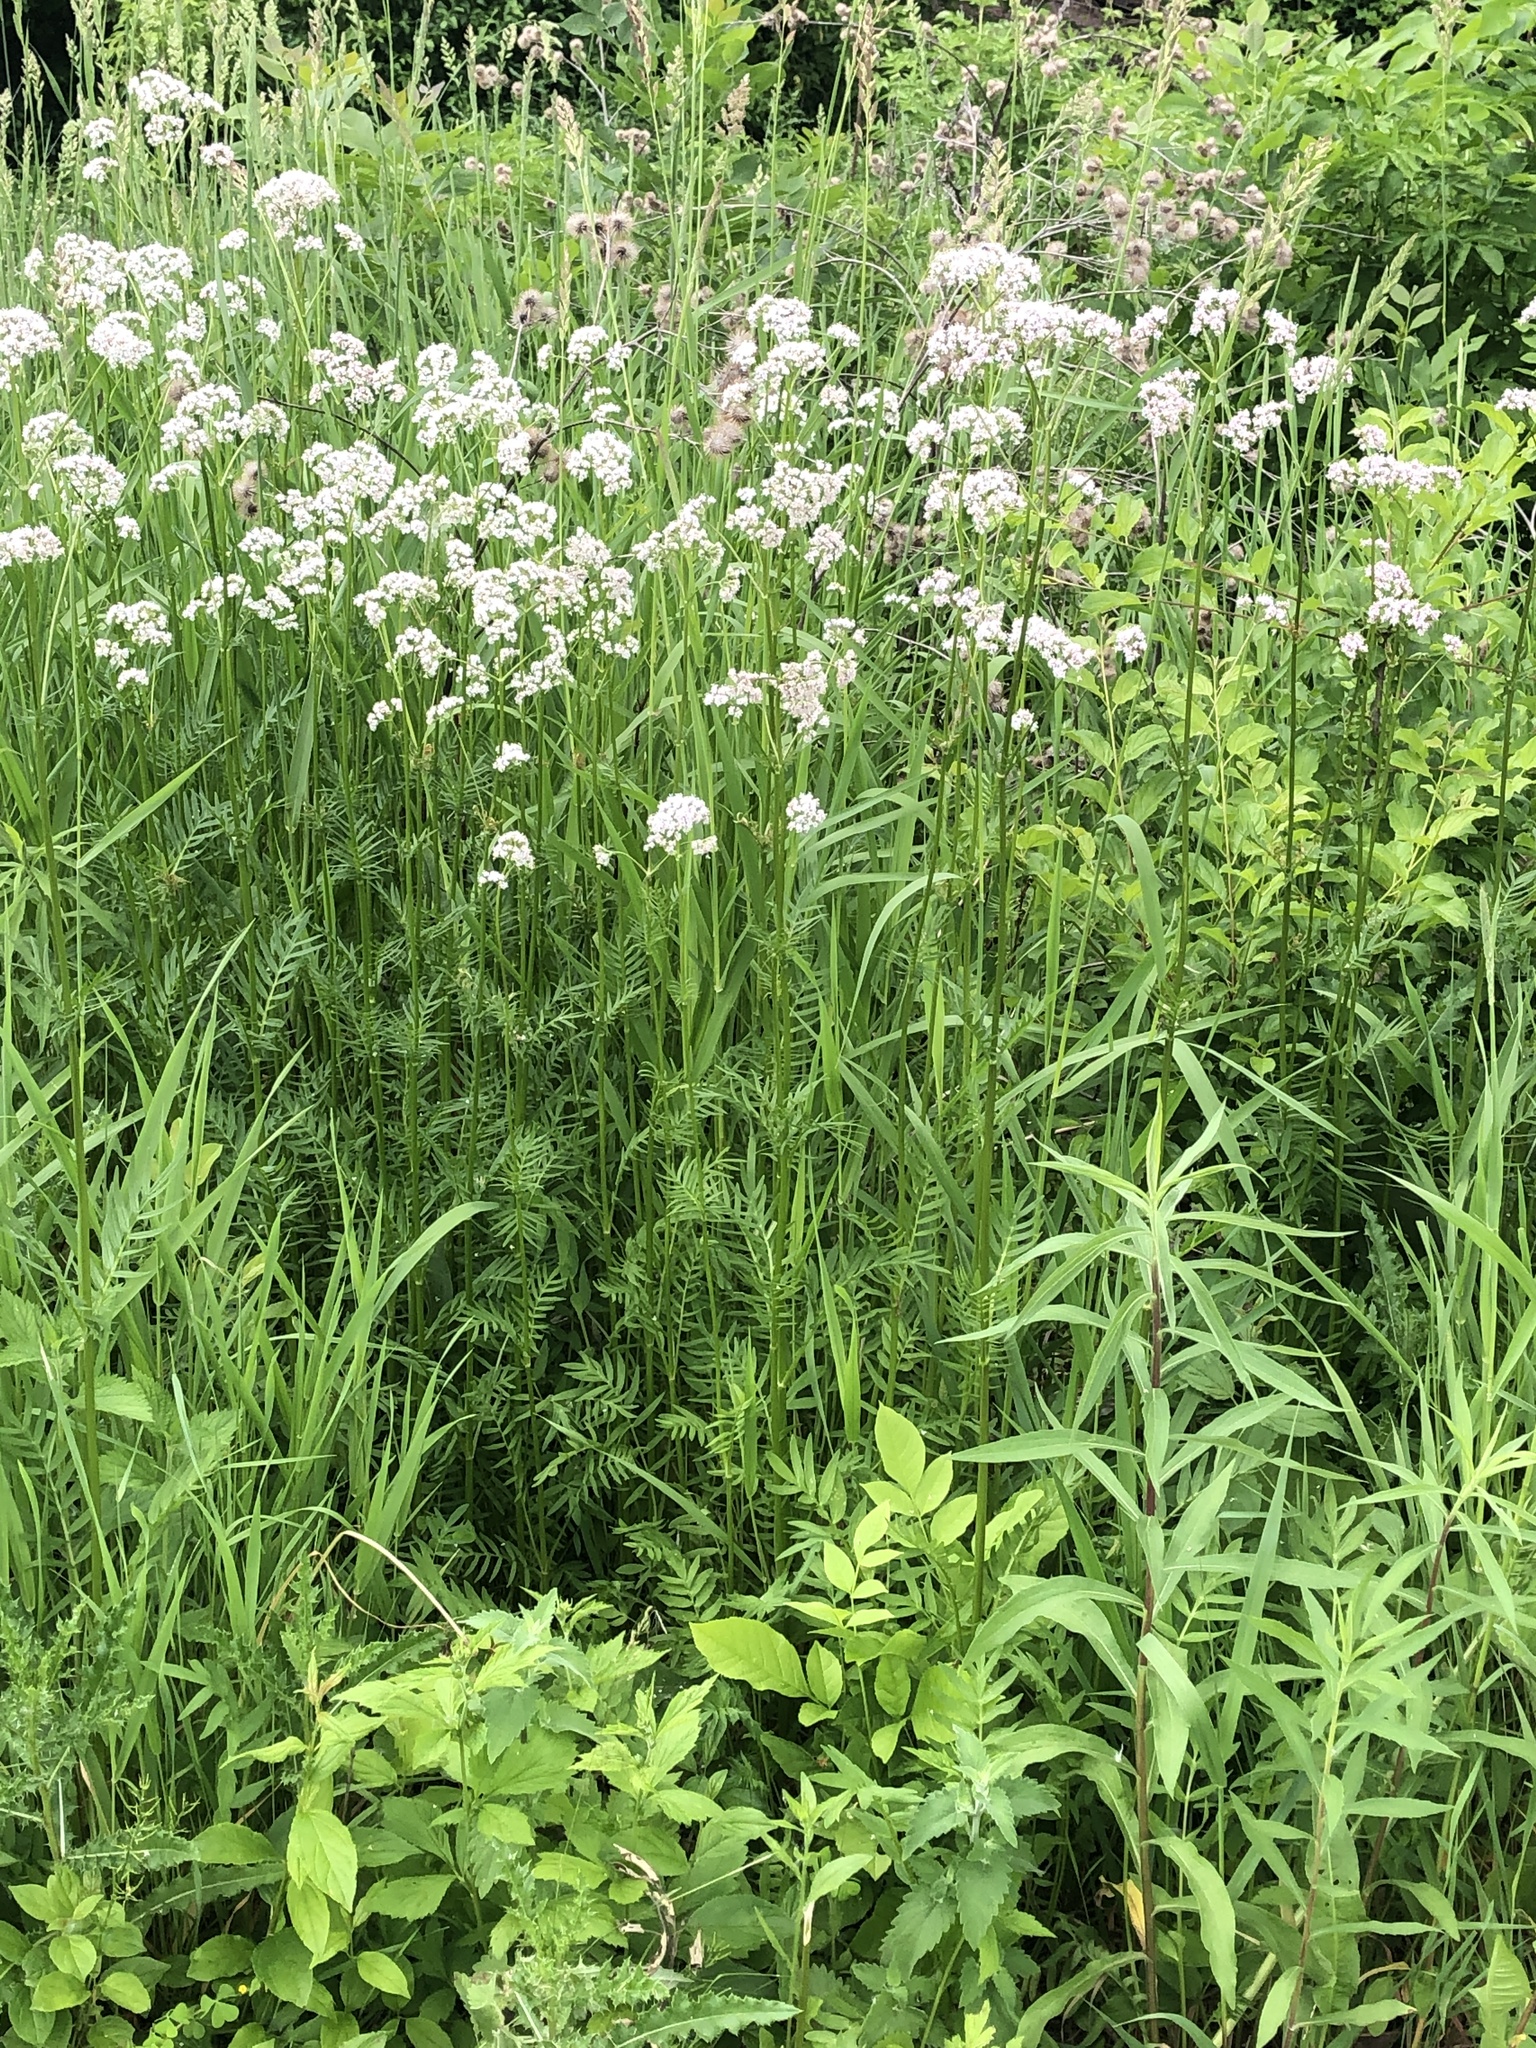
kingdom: Plantae
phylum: Tracheophyta
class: Magnoliopsida
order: Dipsacales
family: Caprifoliaceae
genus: Valeriana
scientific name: Valeriana officinalis
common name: Common valerian
